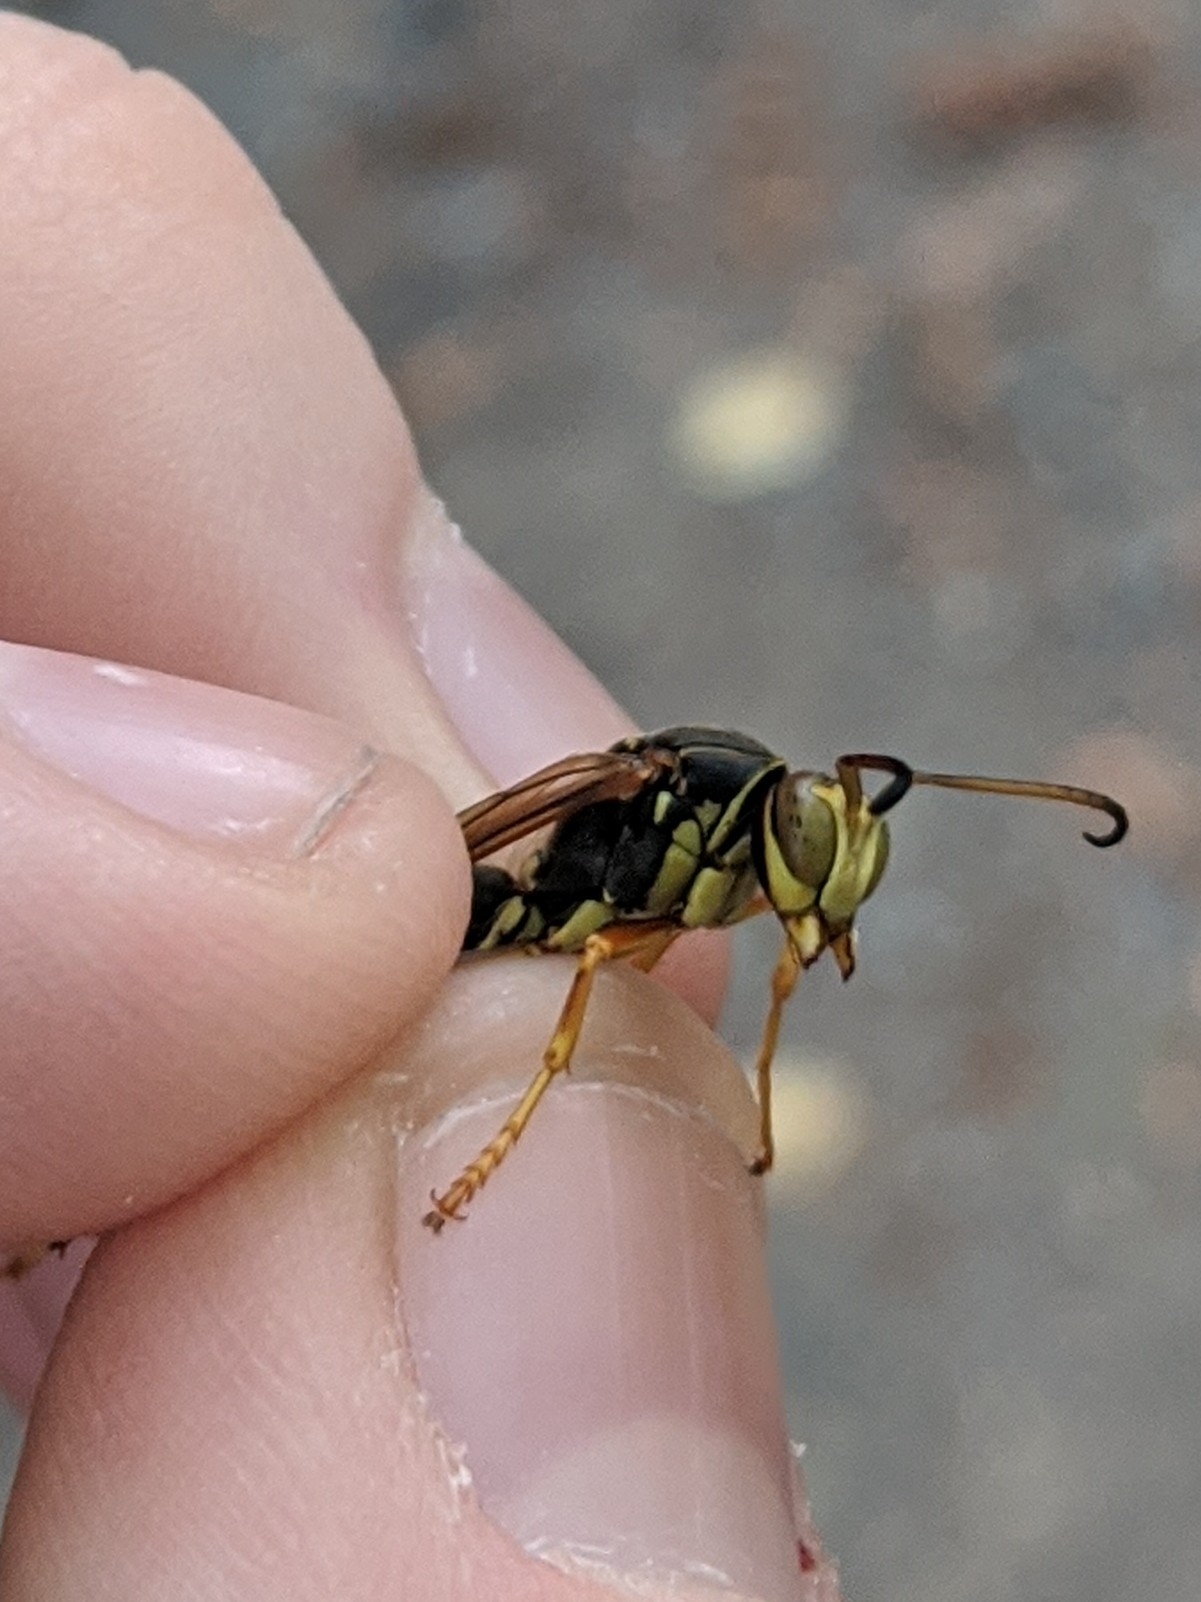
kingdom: Animalia
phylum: Arthropoda
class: Insecta
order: Hymenoptera
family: Eumenidae
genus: Polistes
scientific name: Polistes fuscatus
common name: Dark paper wasp
